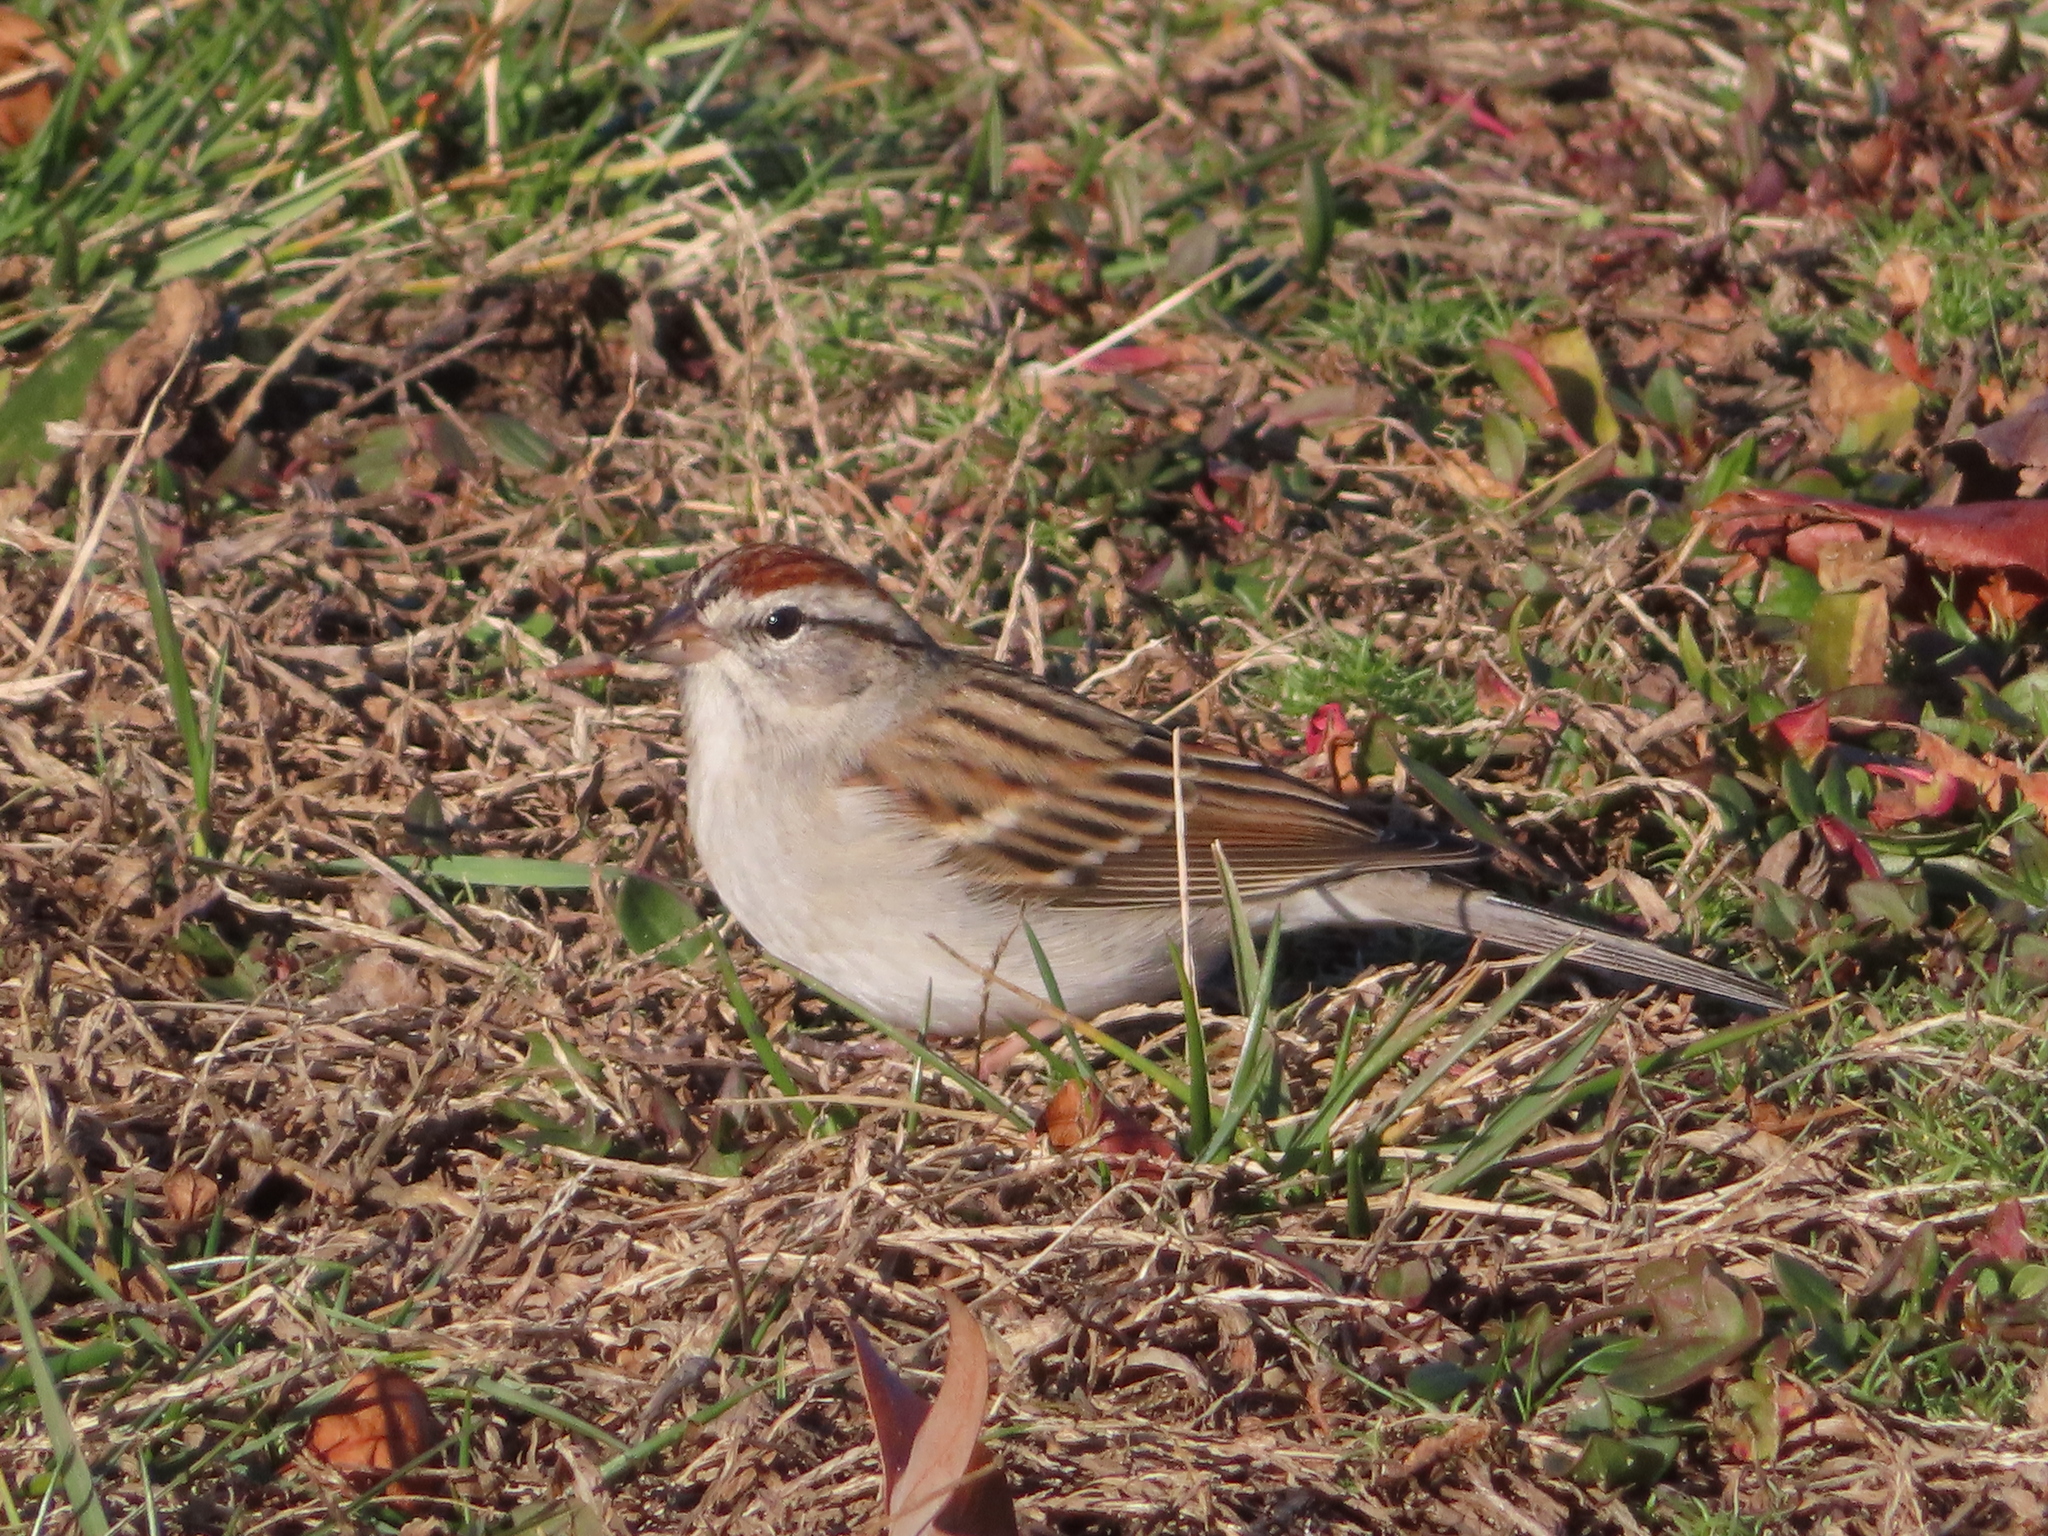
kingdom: Animalia
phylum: Chordata
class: Aves
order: Passeriformes
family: Passerellidae
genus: Spizella
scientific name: Spizella passerina
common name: Chipping sparrow
